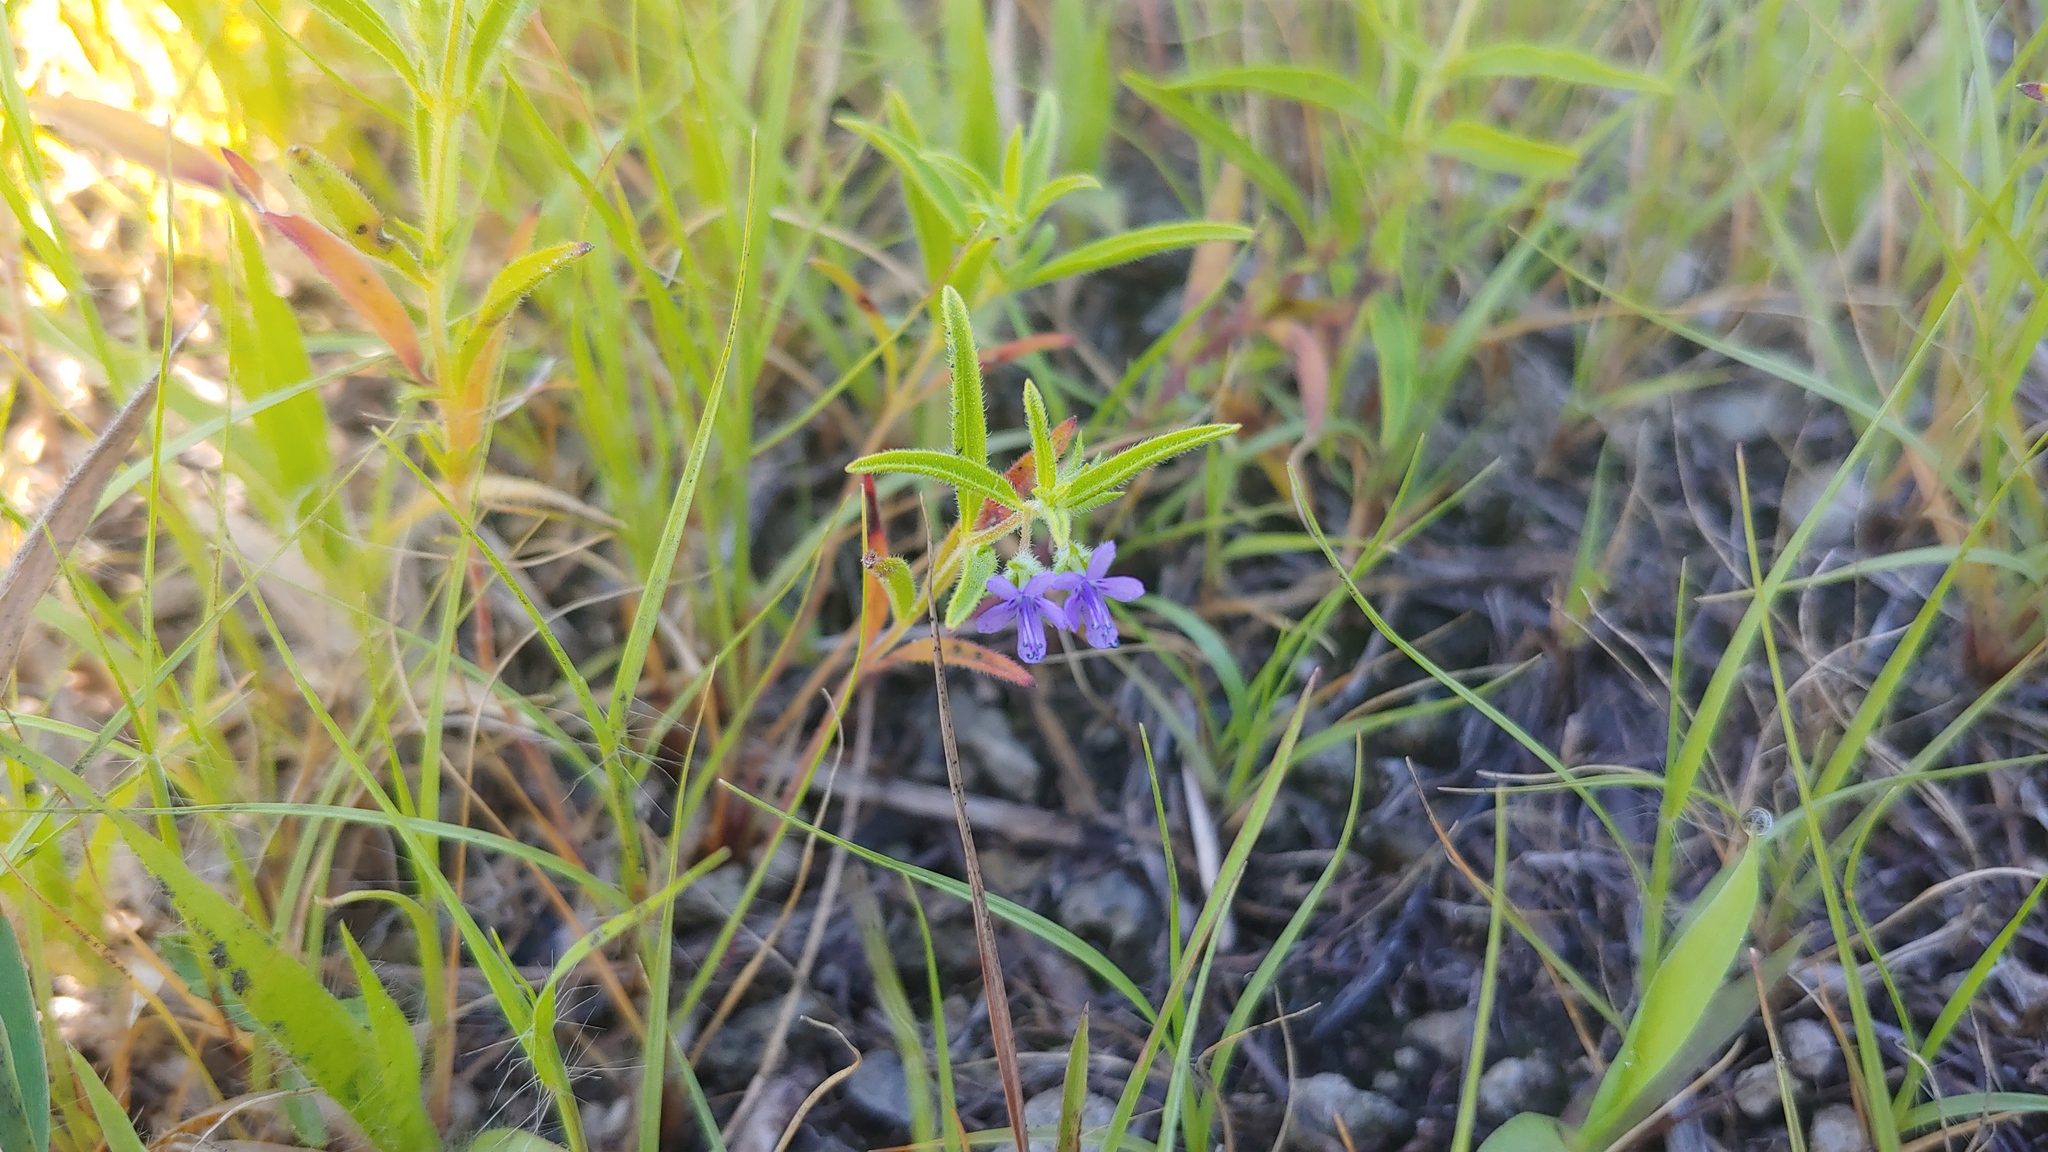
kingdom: Plantae
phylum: Tracheophyta
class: Magnoliopsida
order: Lamiales
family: Lamiaceae
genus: Trichostema
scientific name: Trichostema brachiatum
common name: False pennyroyal
